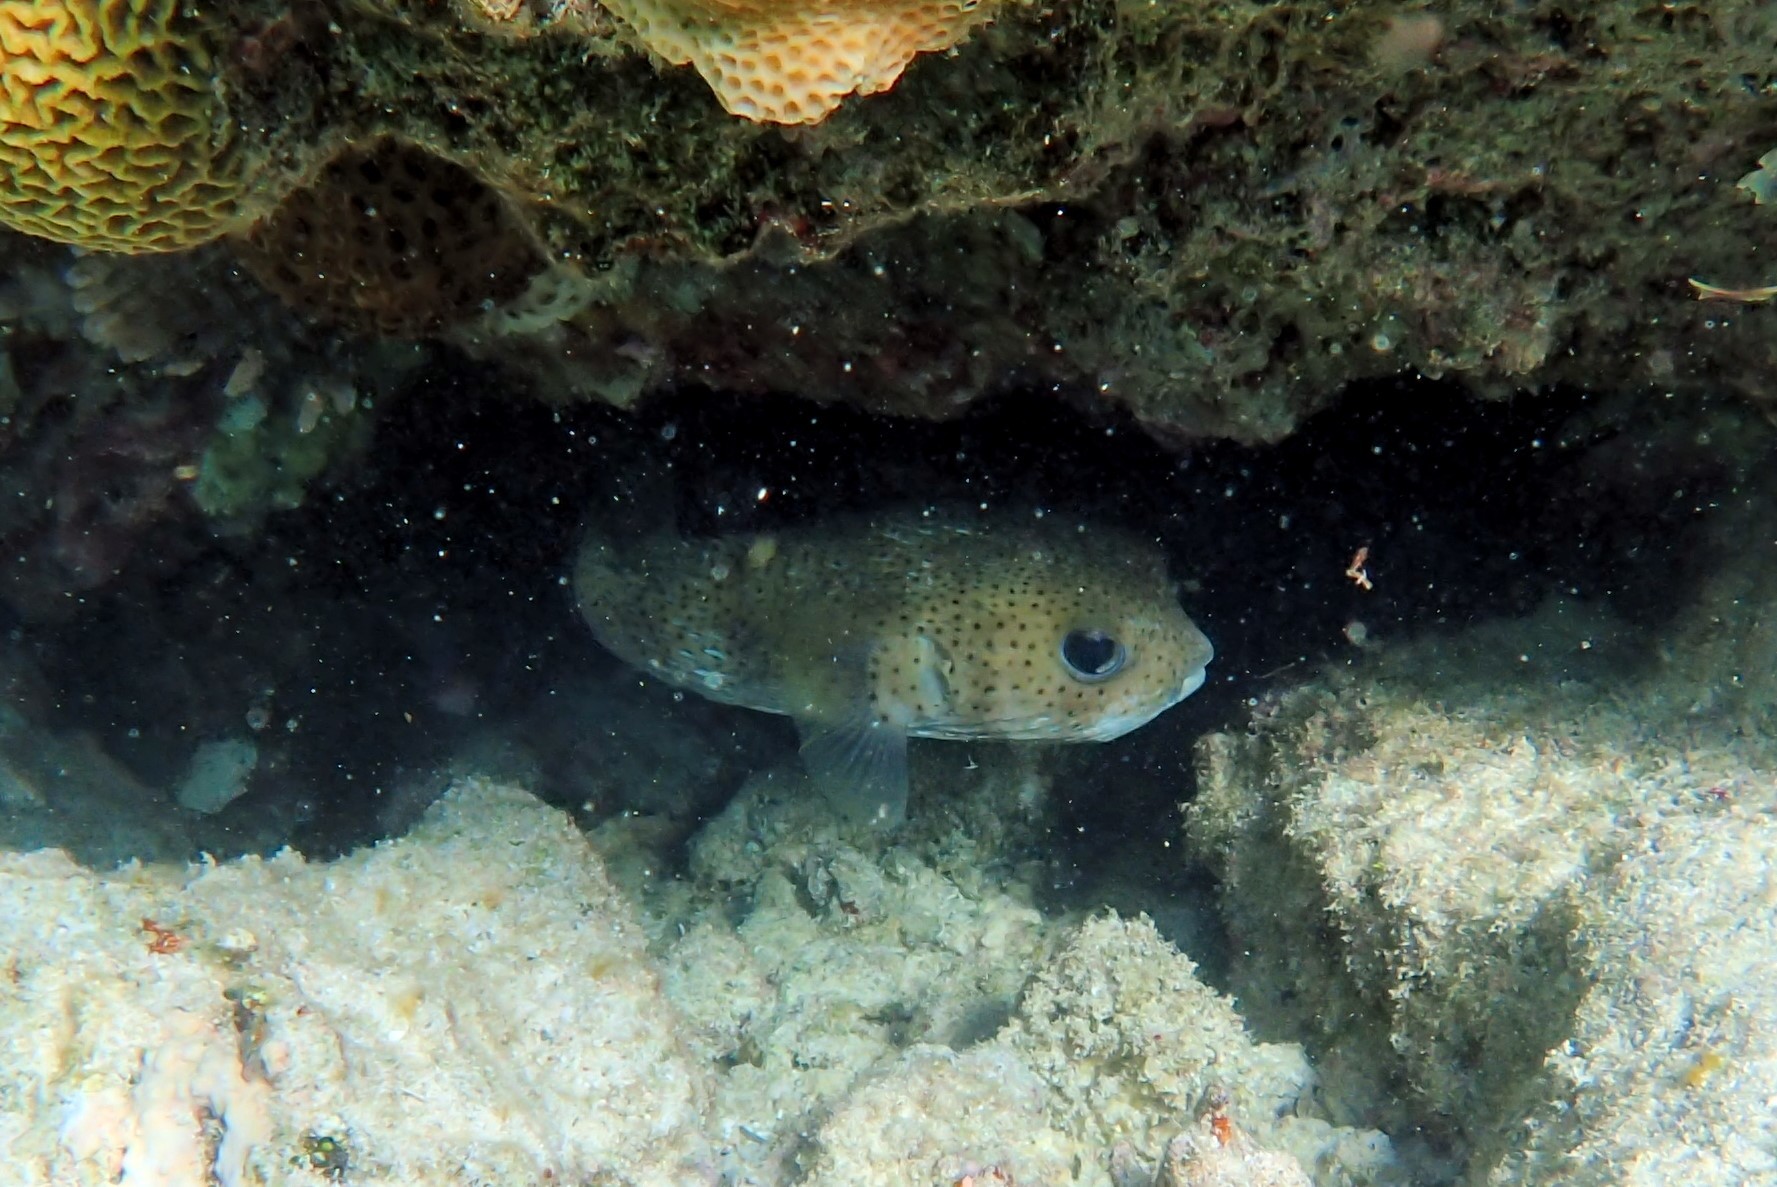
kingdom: Animalia
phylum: Chordata
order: Tetraodontiformes
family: Diodontidae
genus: Diodon
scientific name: Diodon hystrix
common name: Giant porcupinefish
